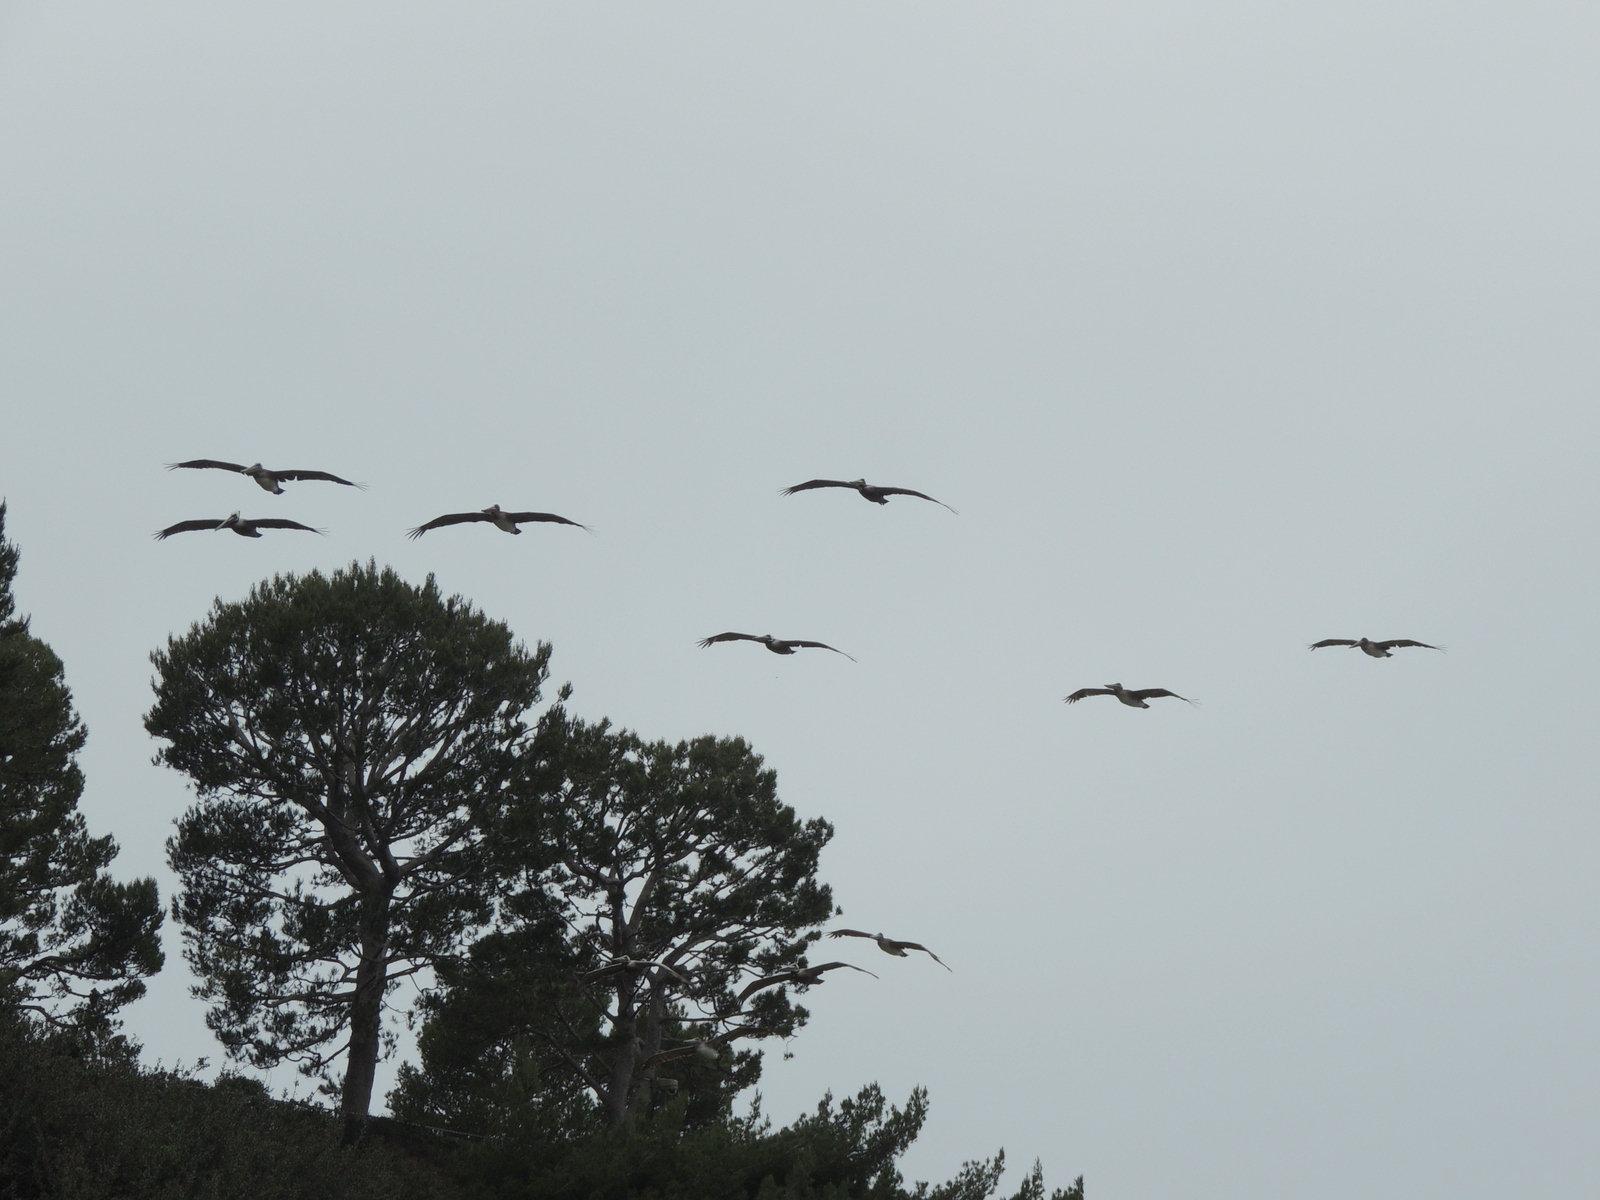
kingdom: Animalia
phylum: Chordata
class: Aves
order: Pelecaniformes
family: Pelecanidae
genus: Pelecanus
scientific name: Pelecanus occidentalis
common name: Brown pelican
